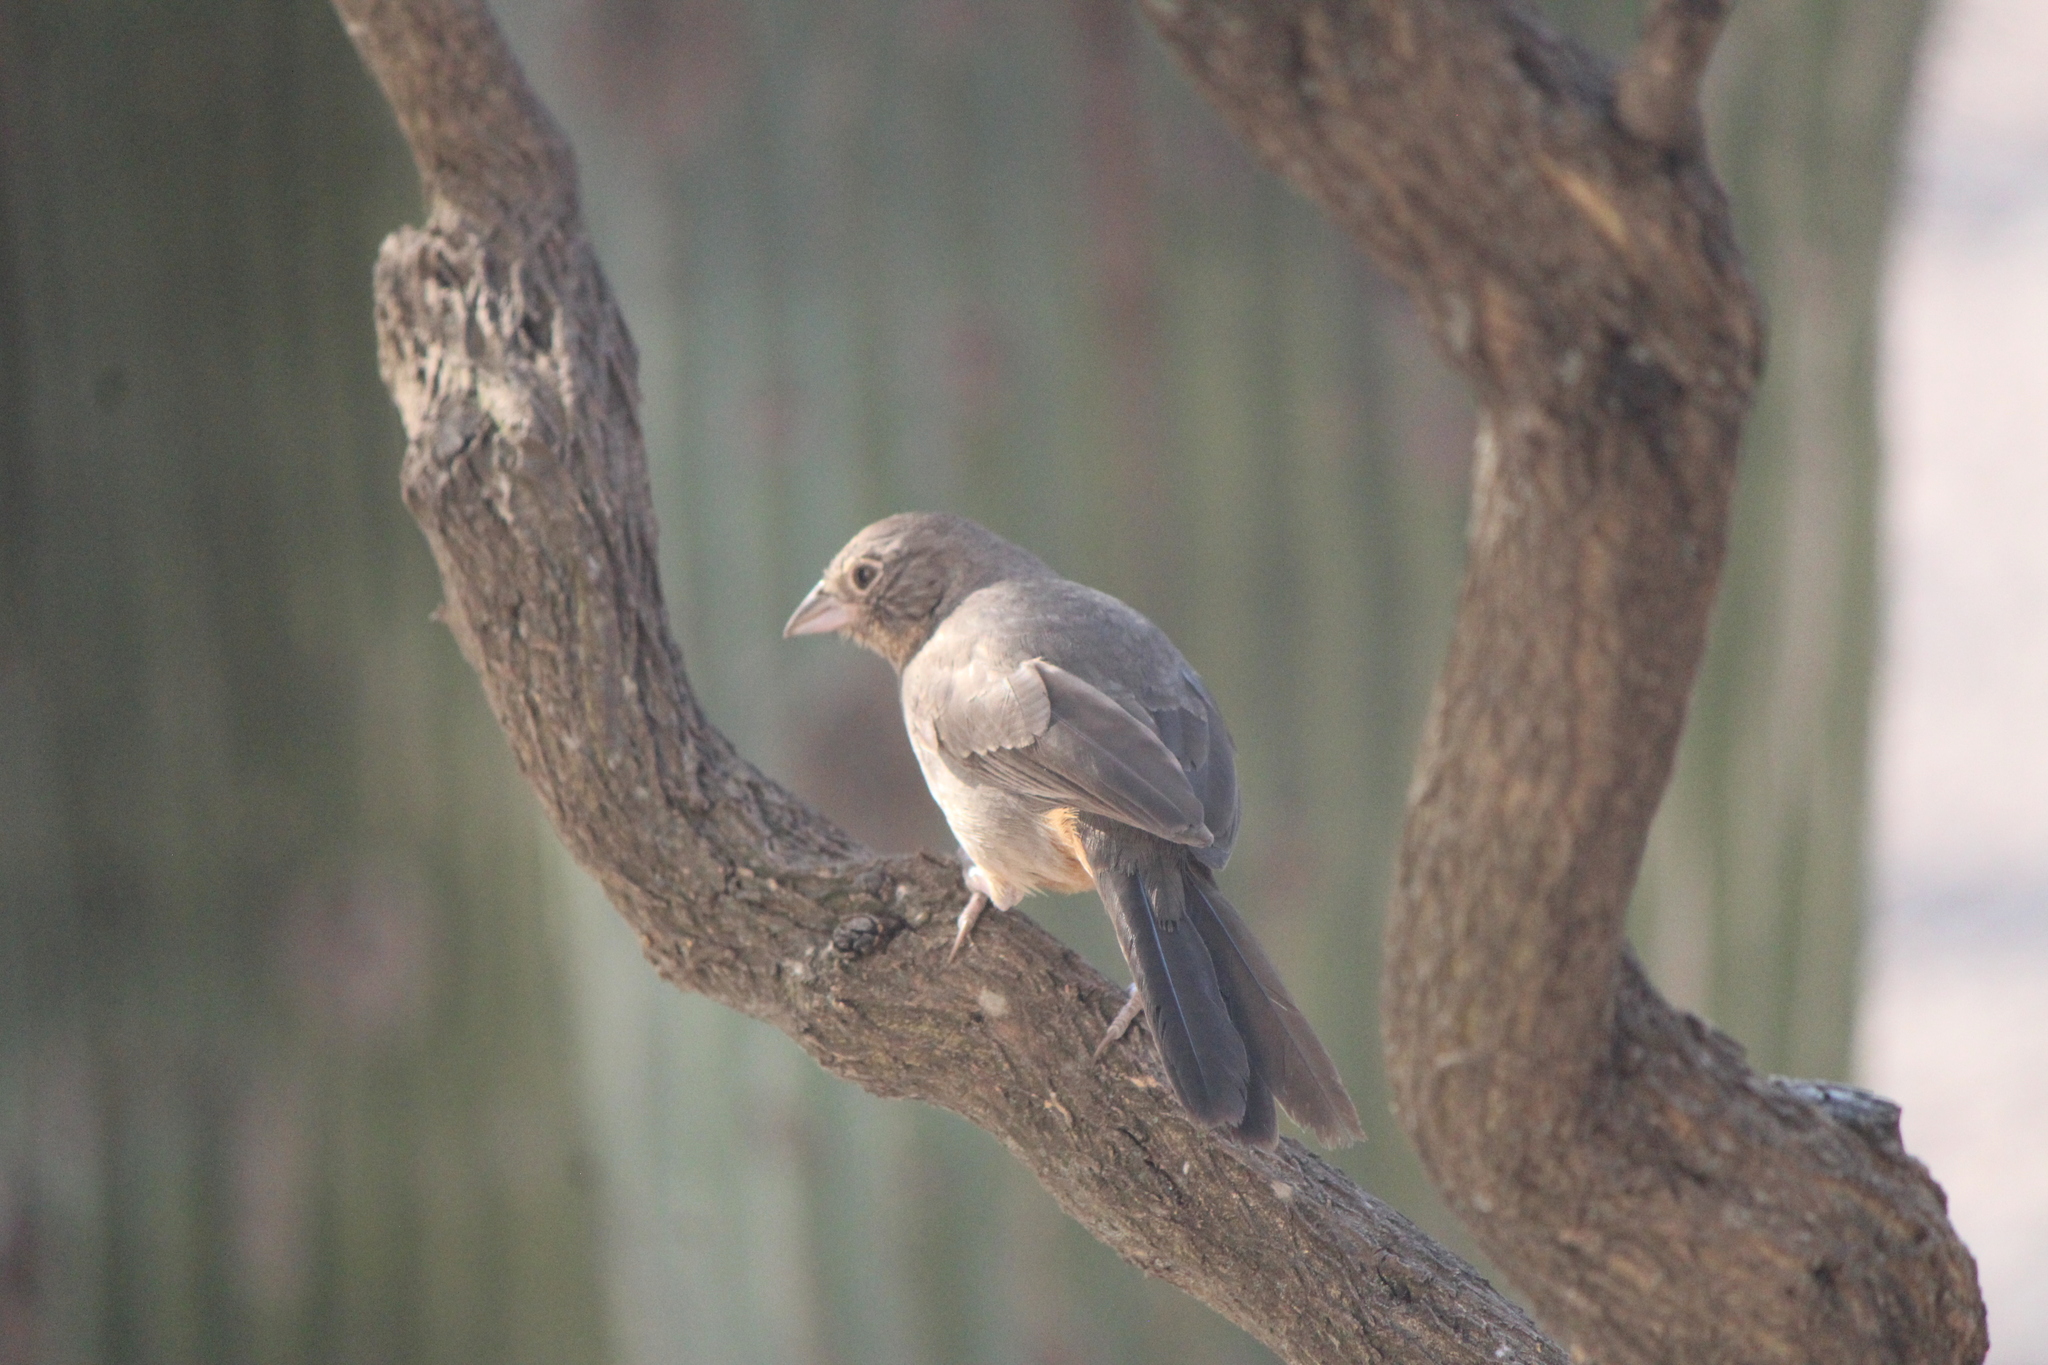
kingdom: Animalia
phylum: Chordata
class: Aves
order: Passeriformes
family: Passerellidae
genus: Melozone
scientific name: Melozone fusca
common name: Canyon towhee
